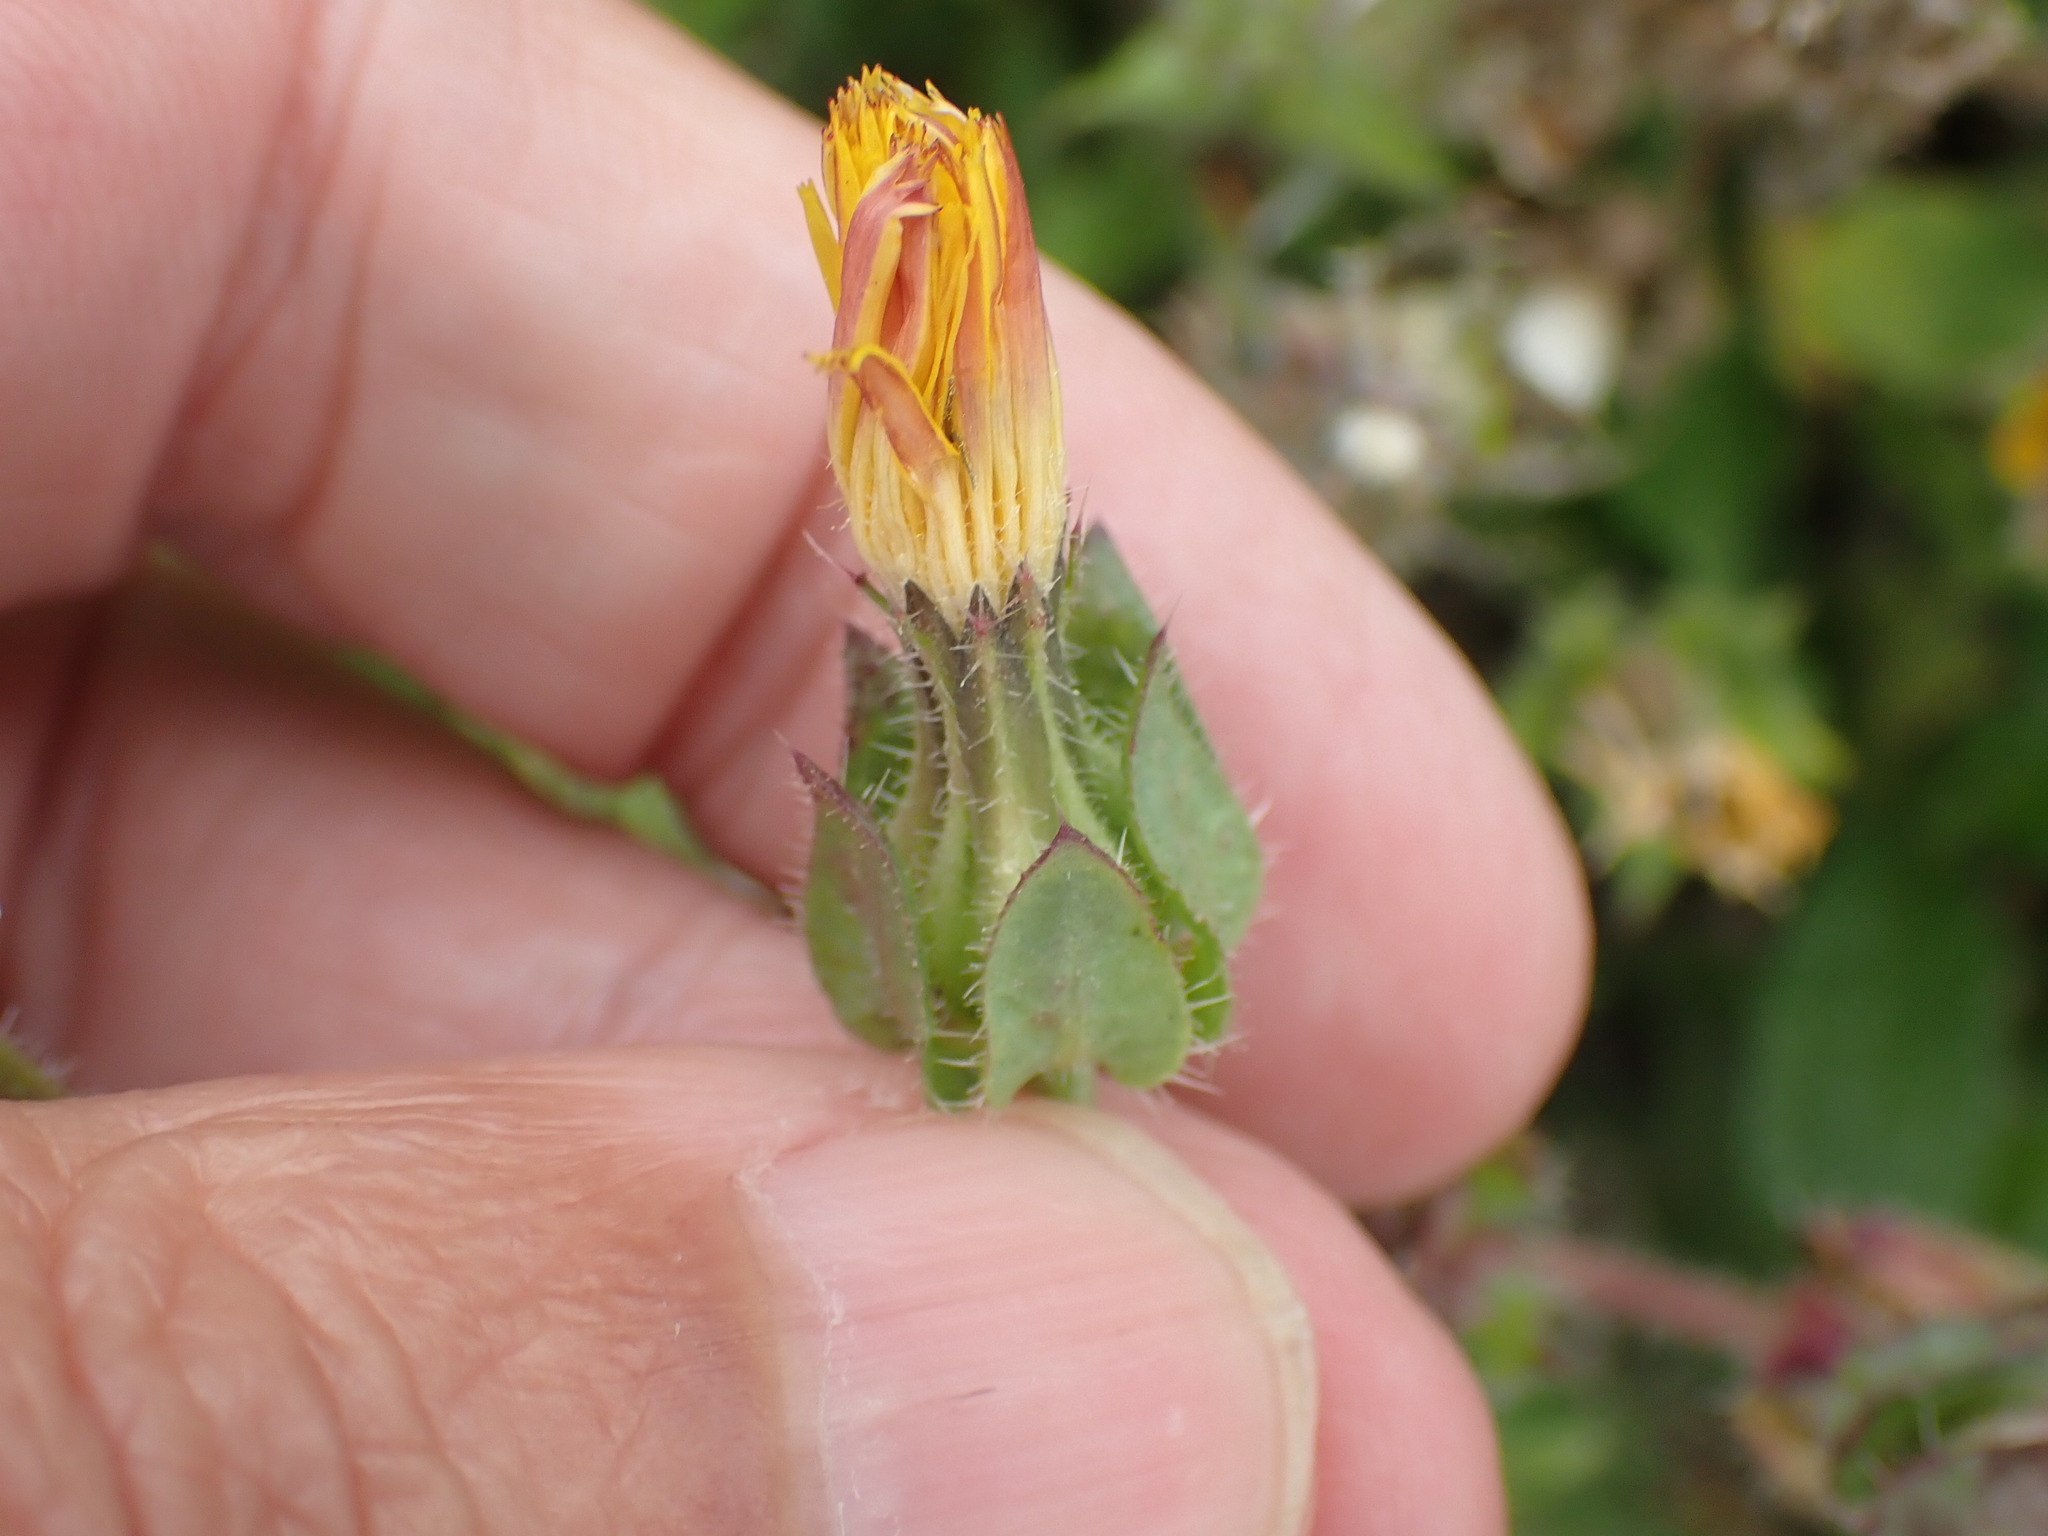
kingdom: Plantae
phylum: Tracheophyta
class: Magnoliopsida
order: Asterales
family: Asteraceae
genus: Helminthotheca
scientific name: Helminthotheca echioides
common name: Ox-tongue
